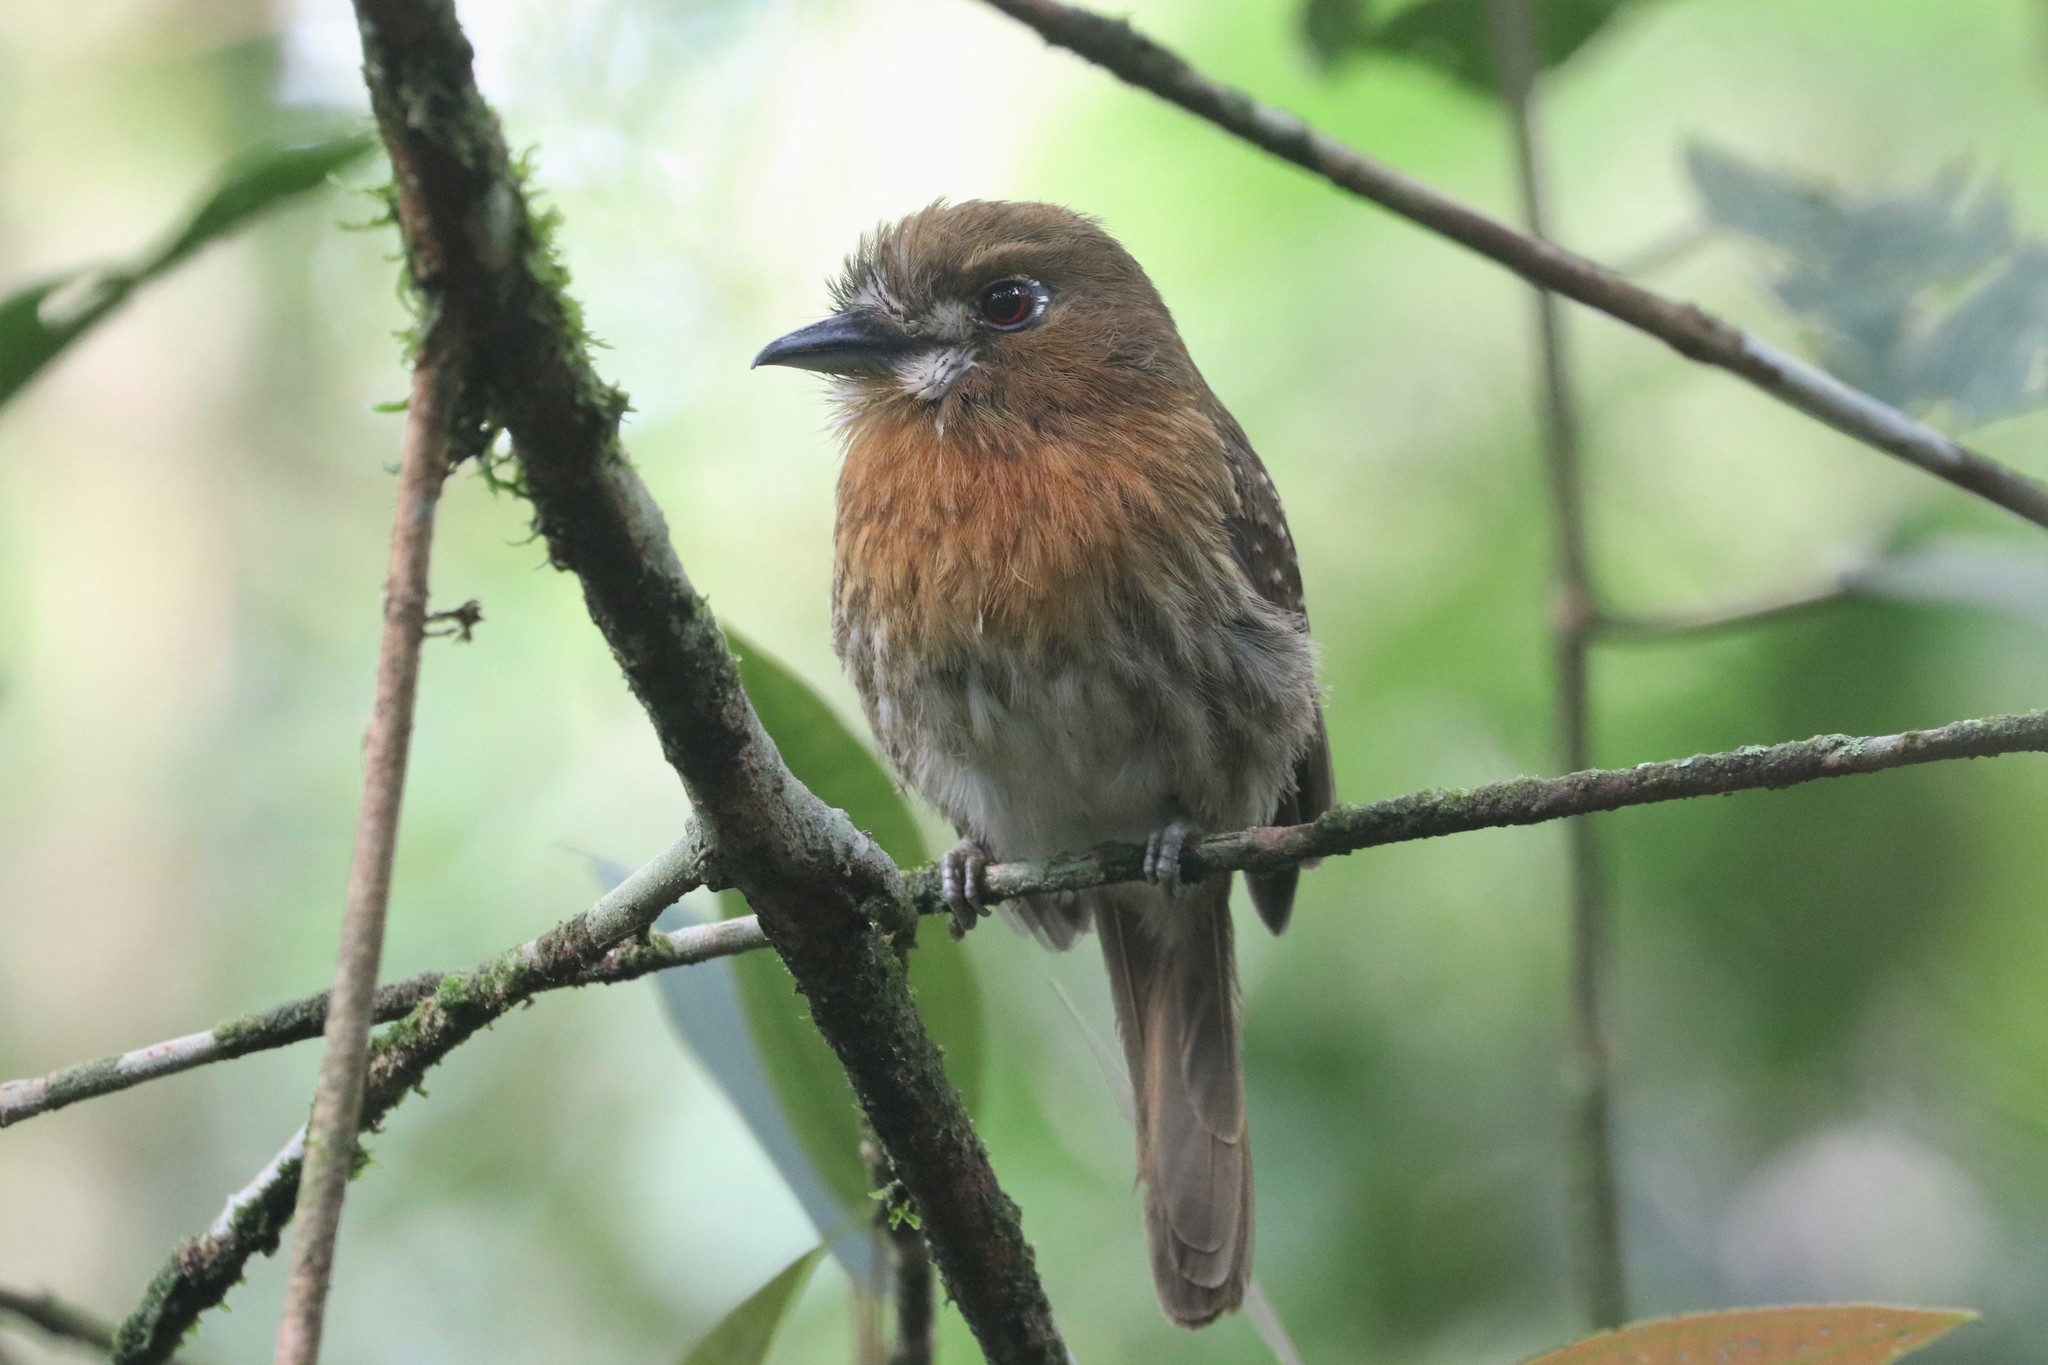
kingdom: Animalia
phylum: Chordata
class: Aves
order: Piciformes
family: Bucconidae
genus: Malacoptila
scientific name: Malacoptila mystacalis
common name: Moustached puffbird
